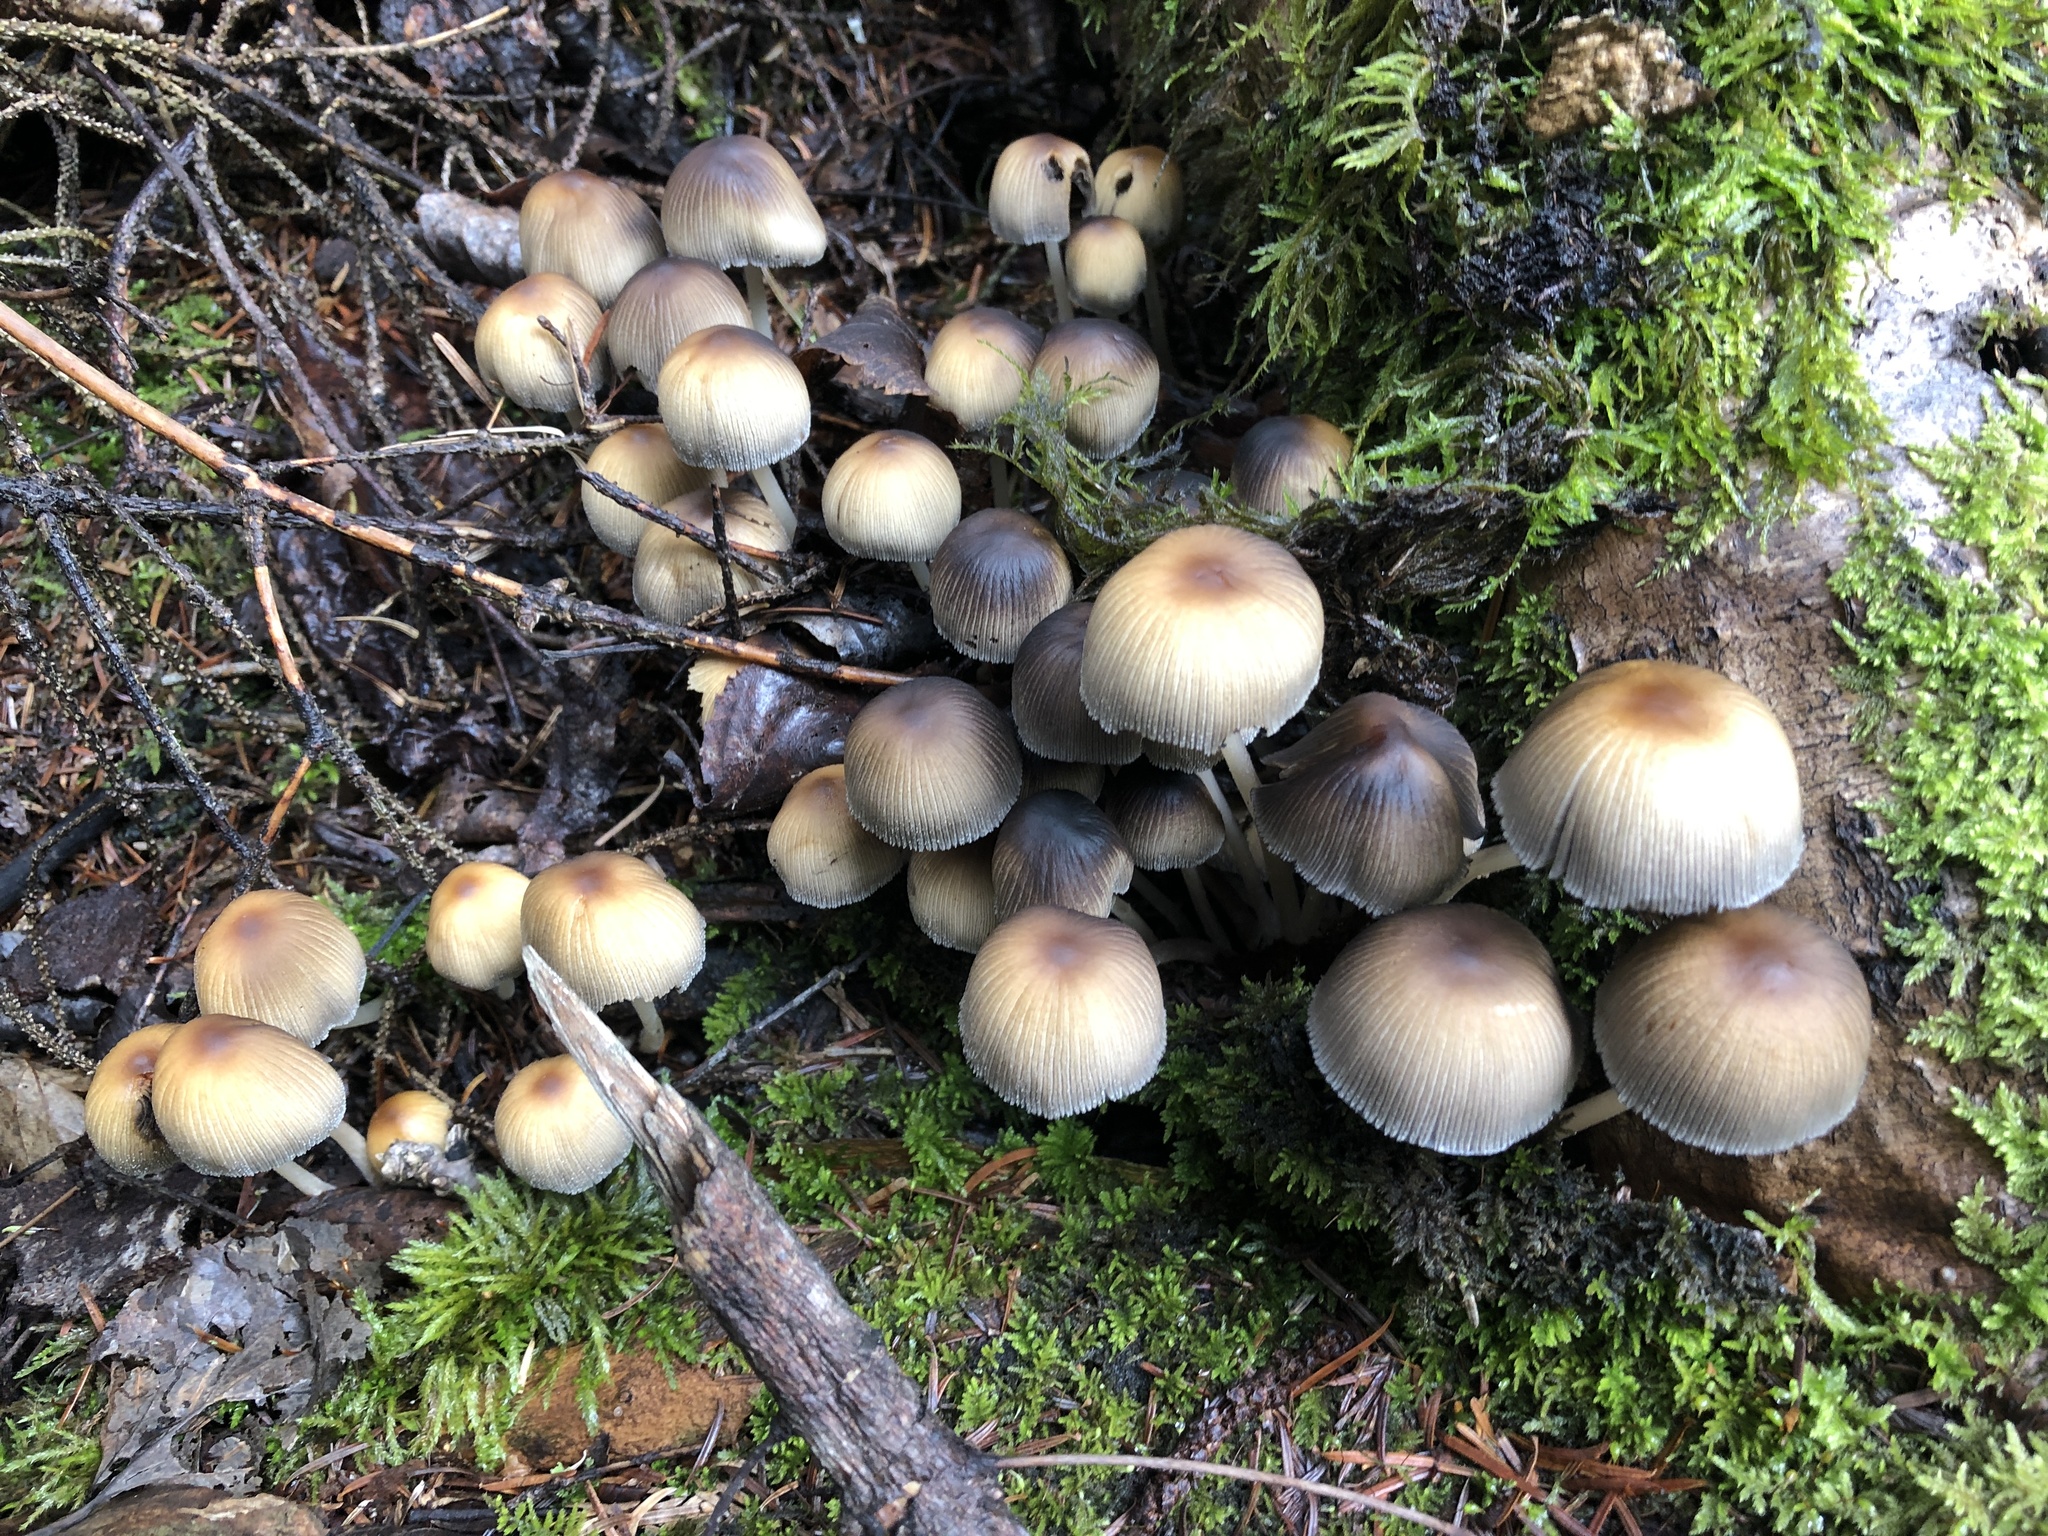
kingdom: Fungi
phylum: Basidiomycota
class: Agaricomycetes
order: Agaricales
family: Psathyrellaceae
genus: Coprinellus
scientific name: Coprinellus micaceus
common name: Glistening ink-cap
